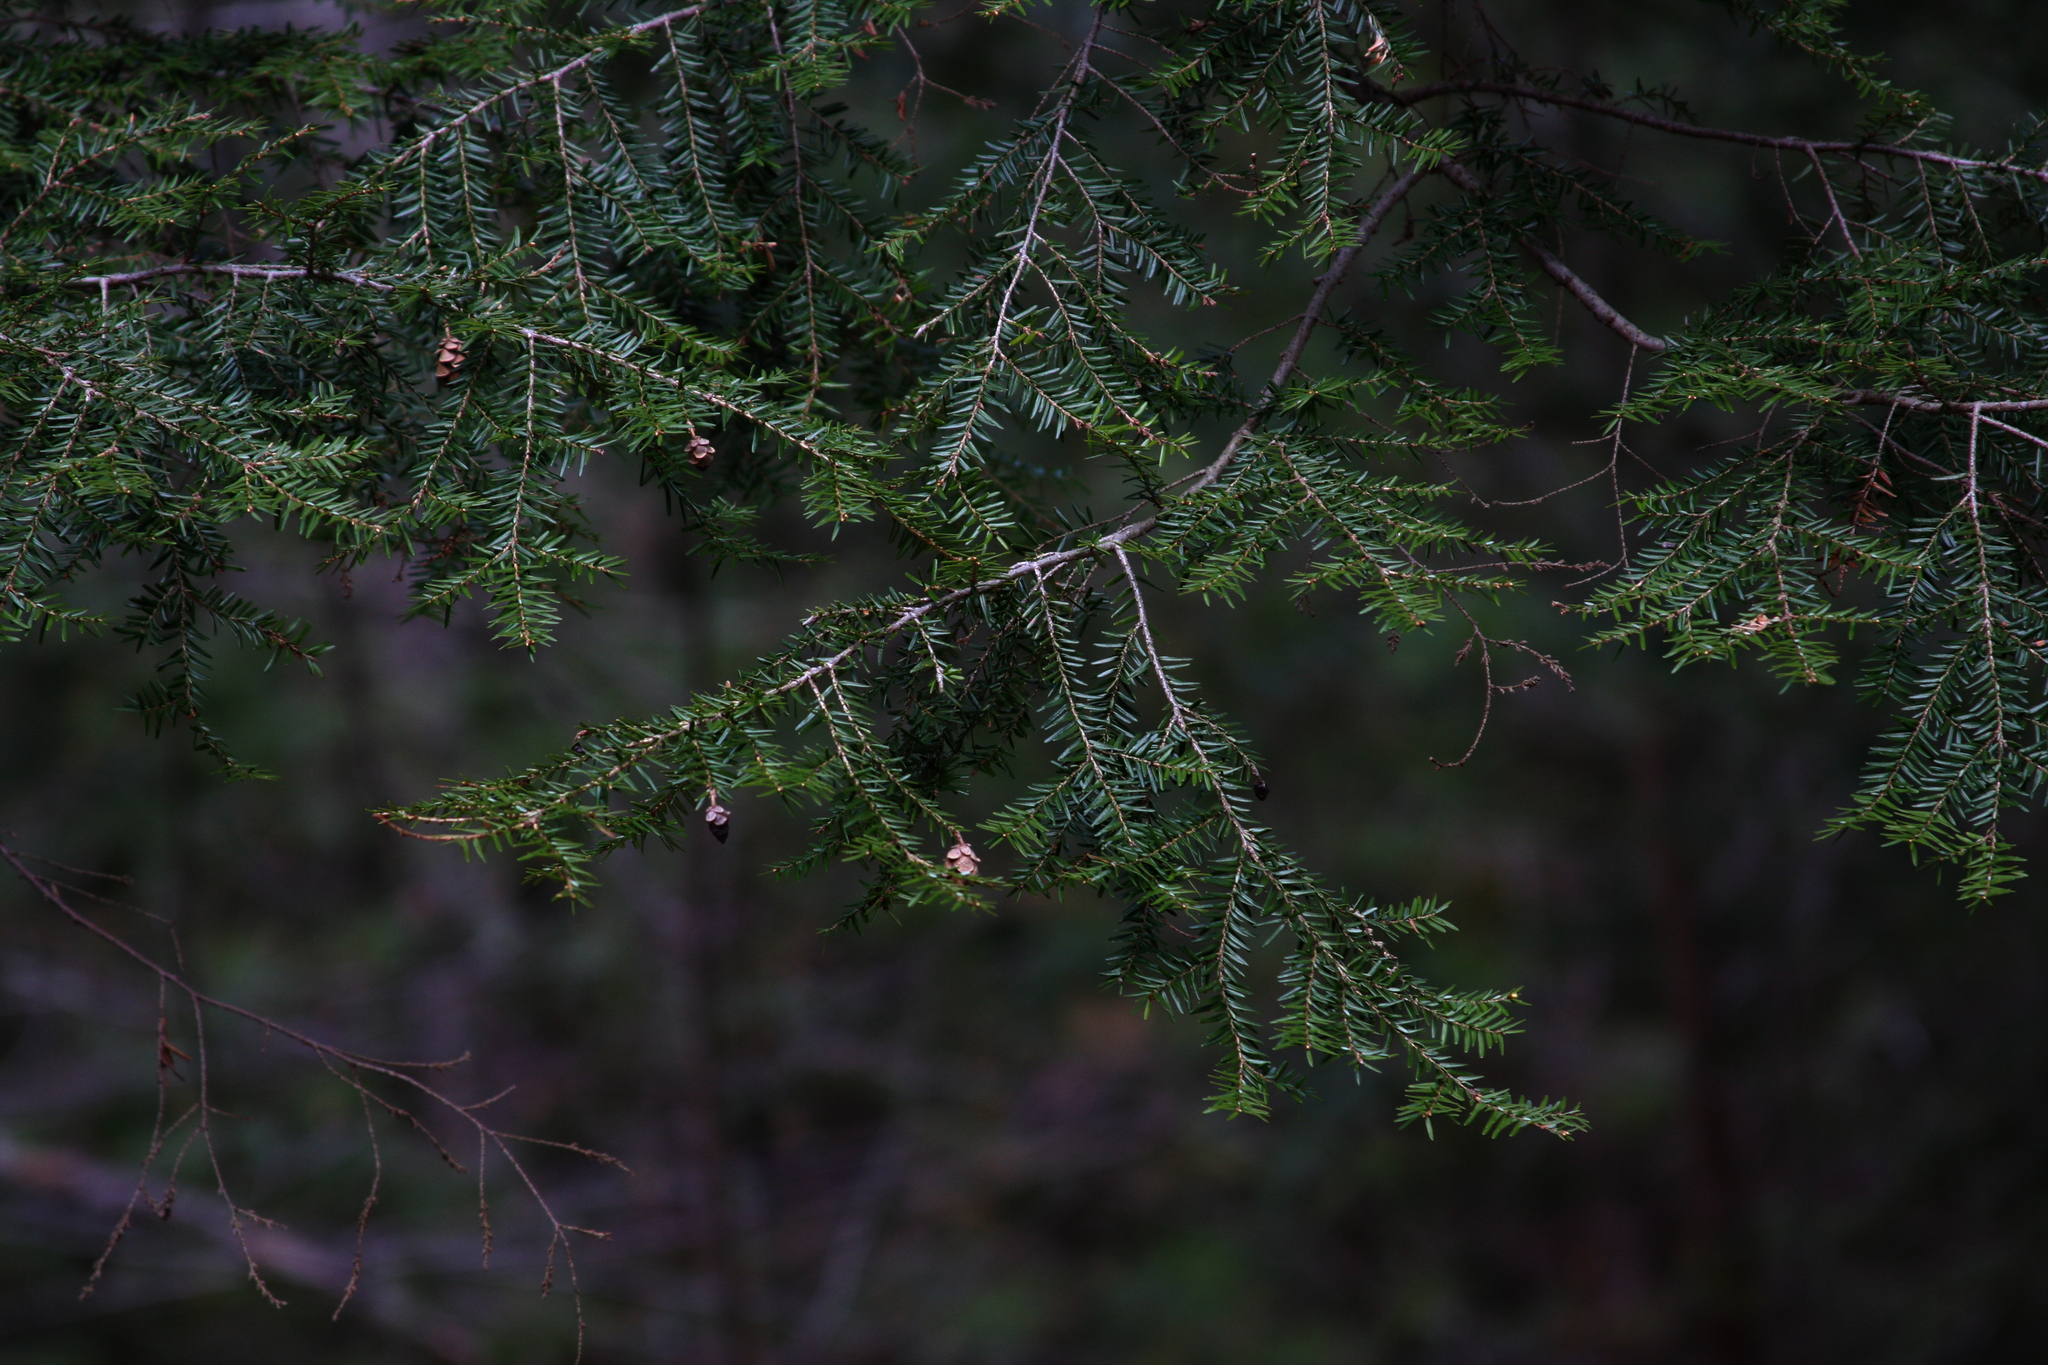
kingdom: Plantae
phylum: Tracheophyta
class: Pinopsida
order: Pinales
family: Pinaceae
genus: Tsuga
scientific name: Tsuga canadensis
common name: Eastern hemlock
